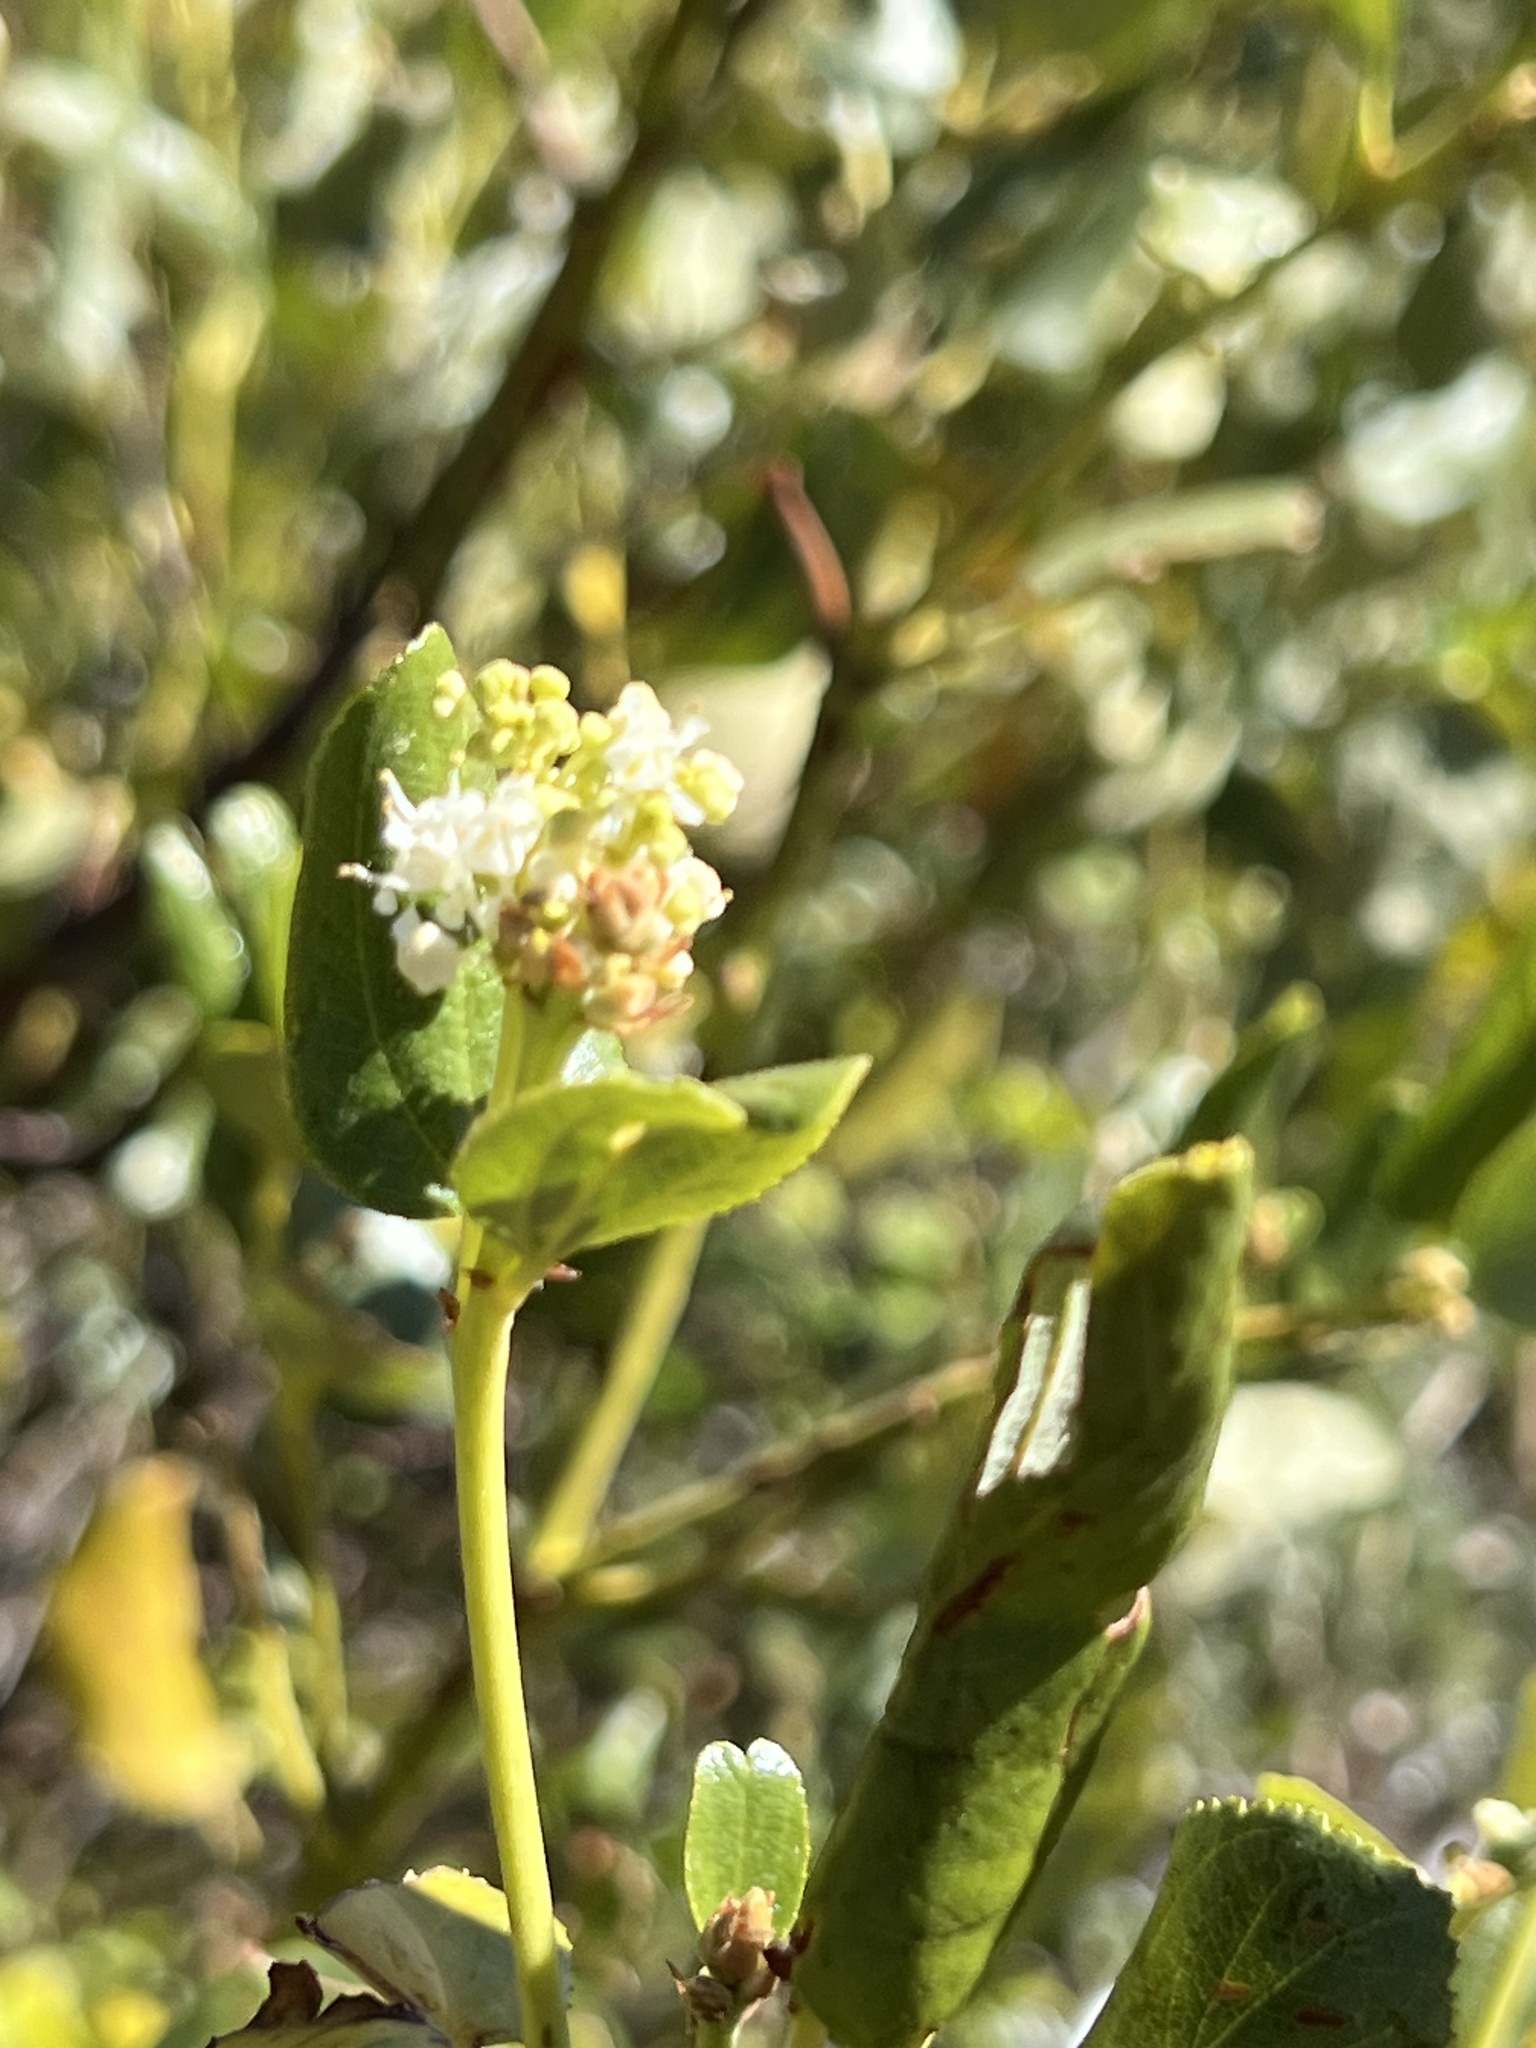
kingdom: Plantae
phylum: Tracheophyta
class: Magnoliopsida
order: Rosales
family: Rhamnaceae
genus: Ceanothus
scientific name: Ceanothus velutinus
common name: Snowbrush
